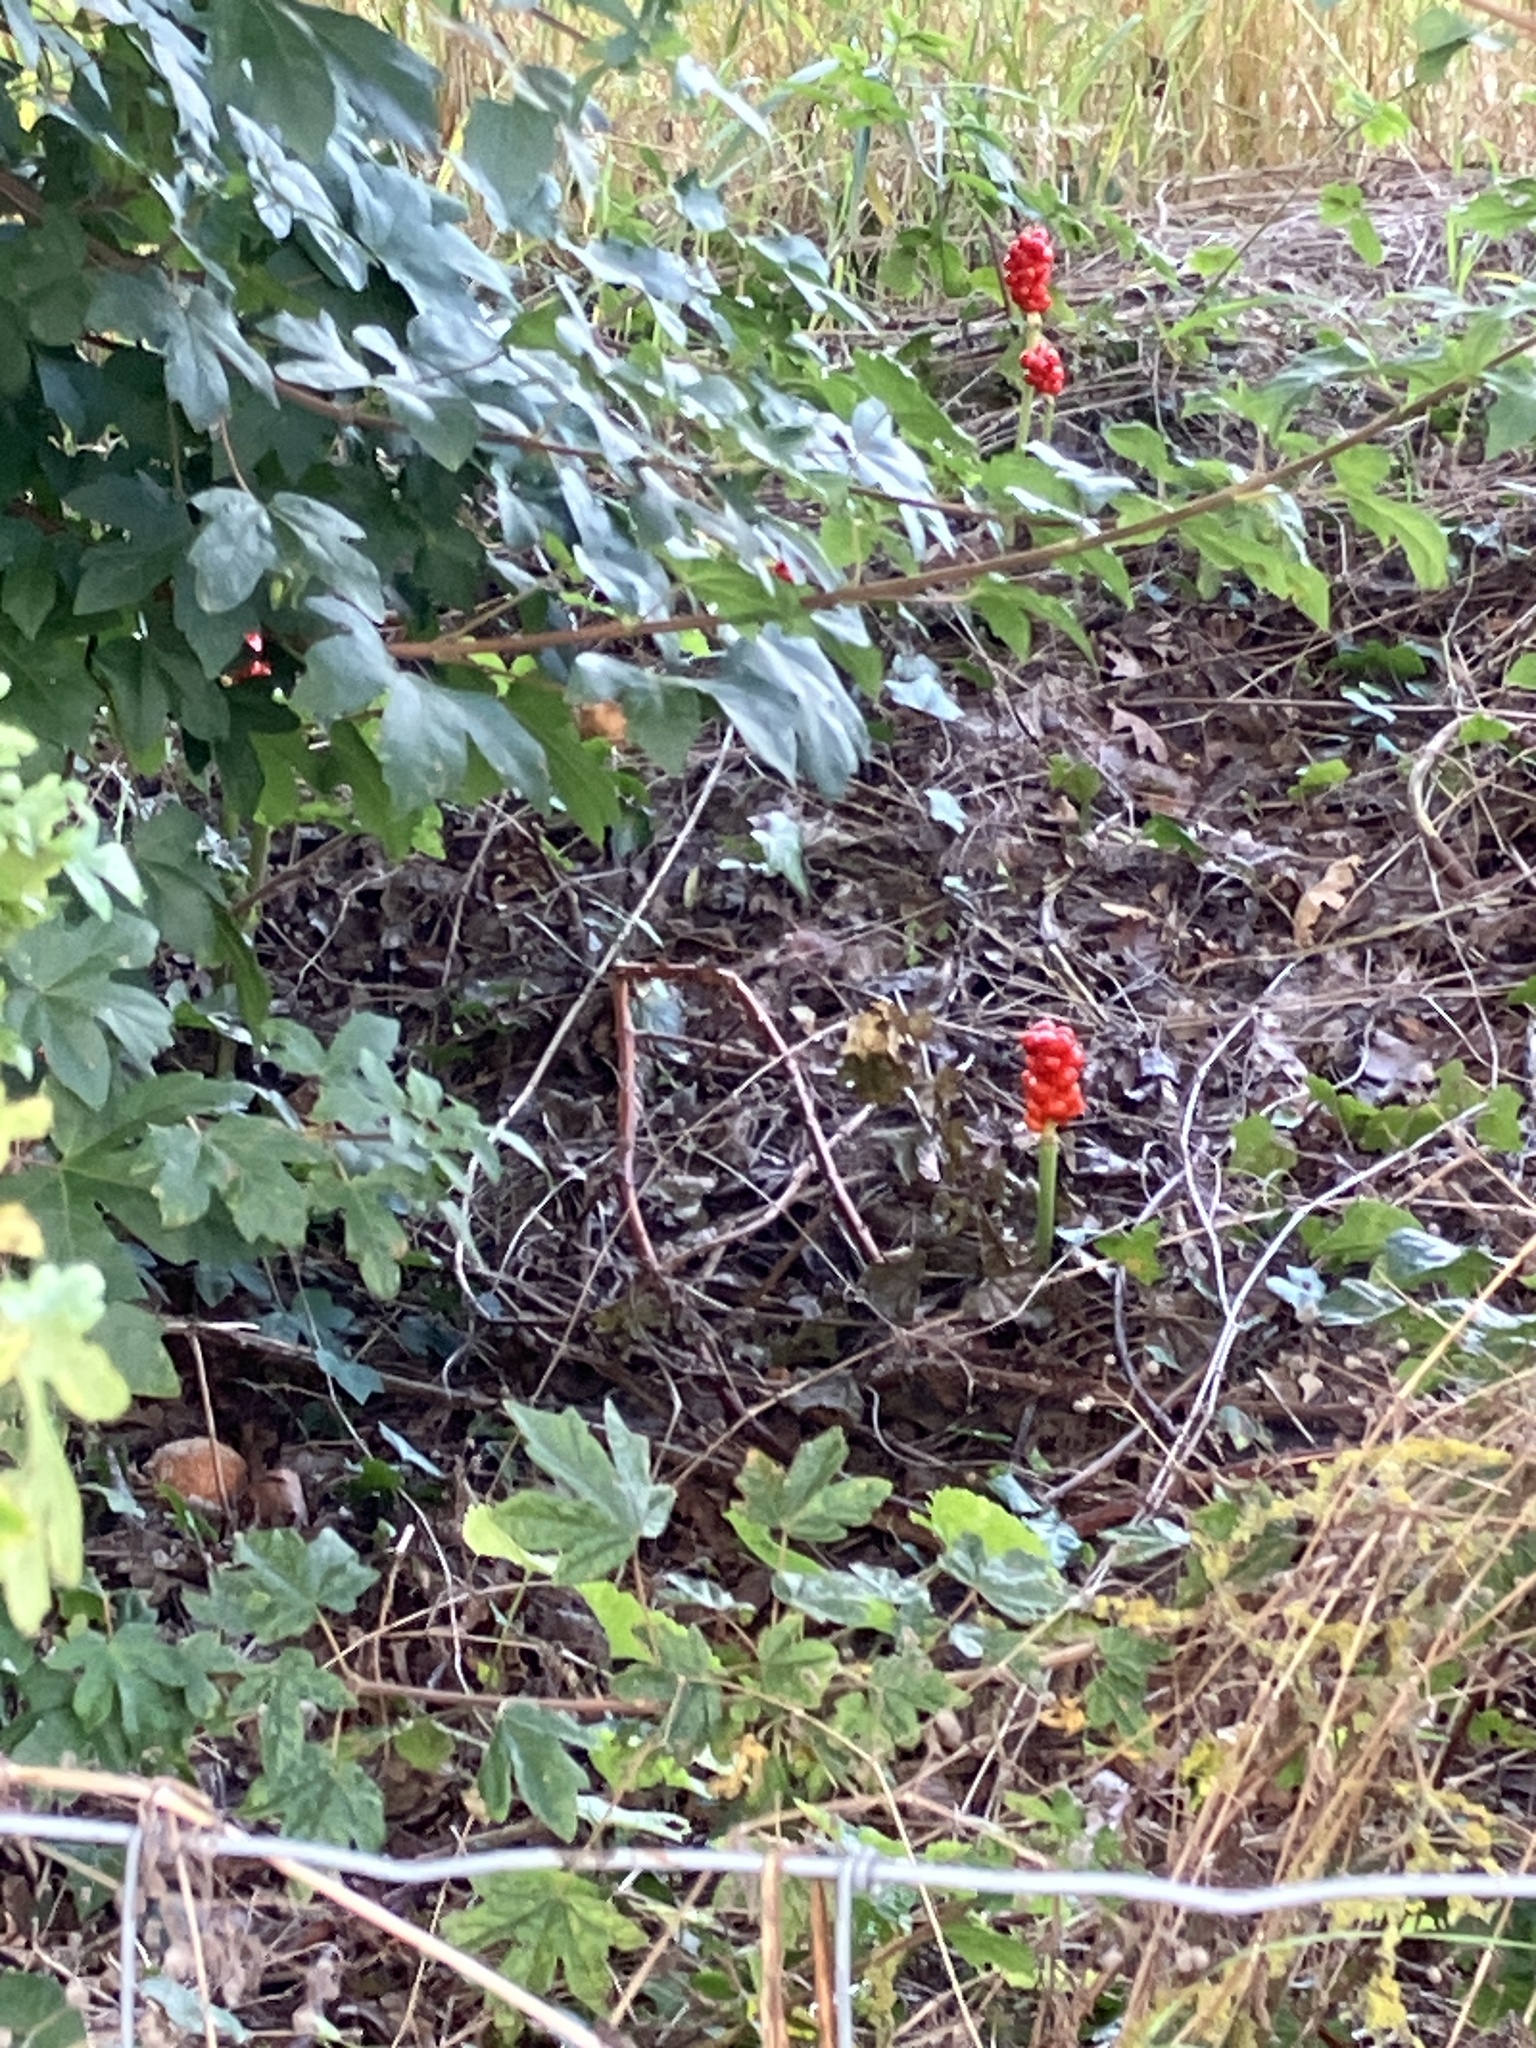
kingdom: Plantae
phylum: Tracheophyta
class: Liliopsida
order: Alismatales
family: Araceae
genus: Arum
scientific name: Arum maculatum
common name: Lords-and-ladies
